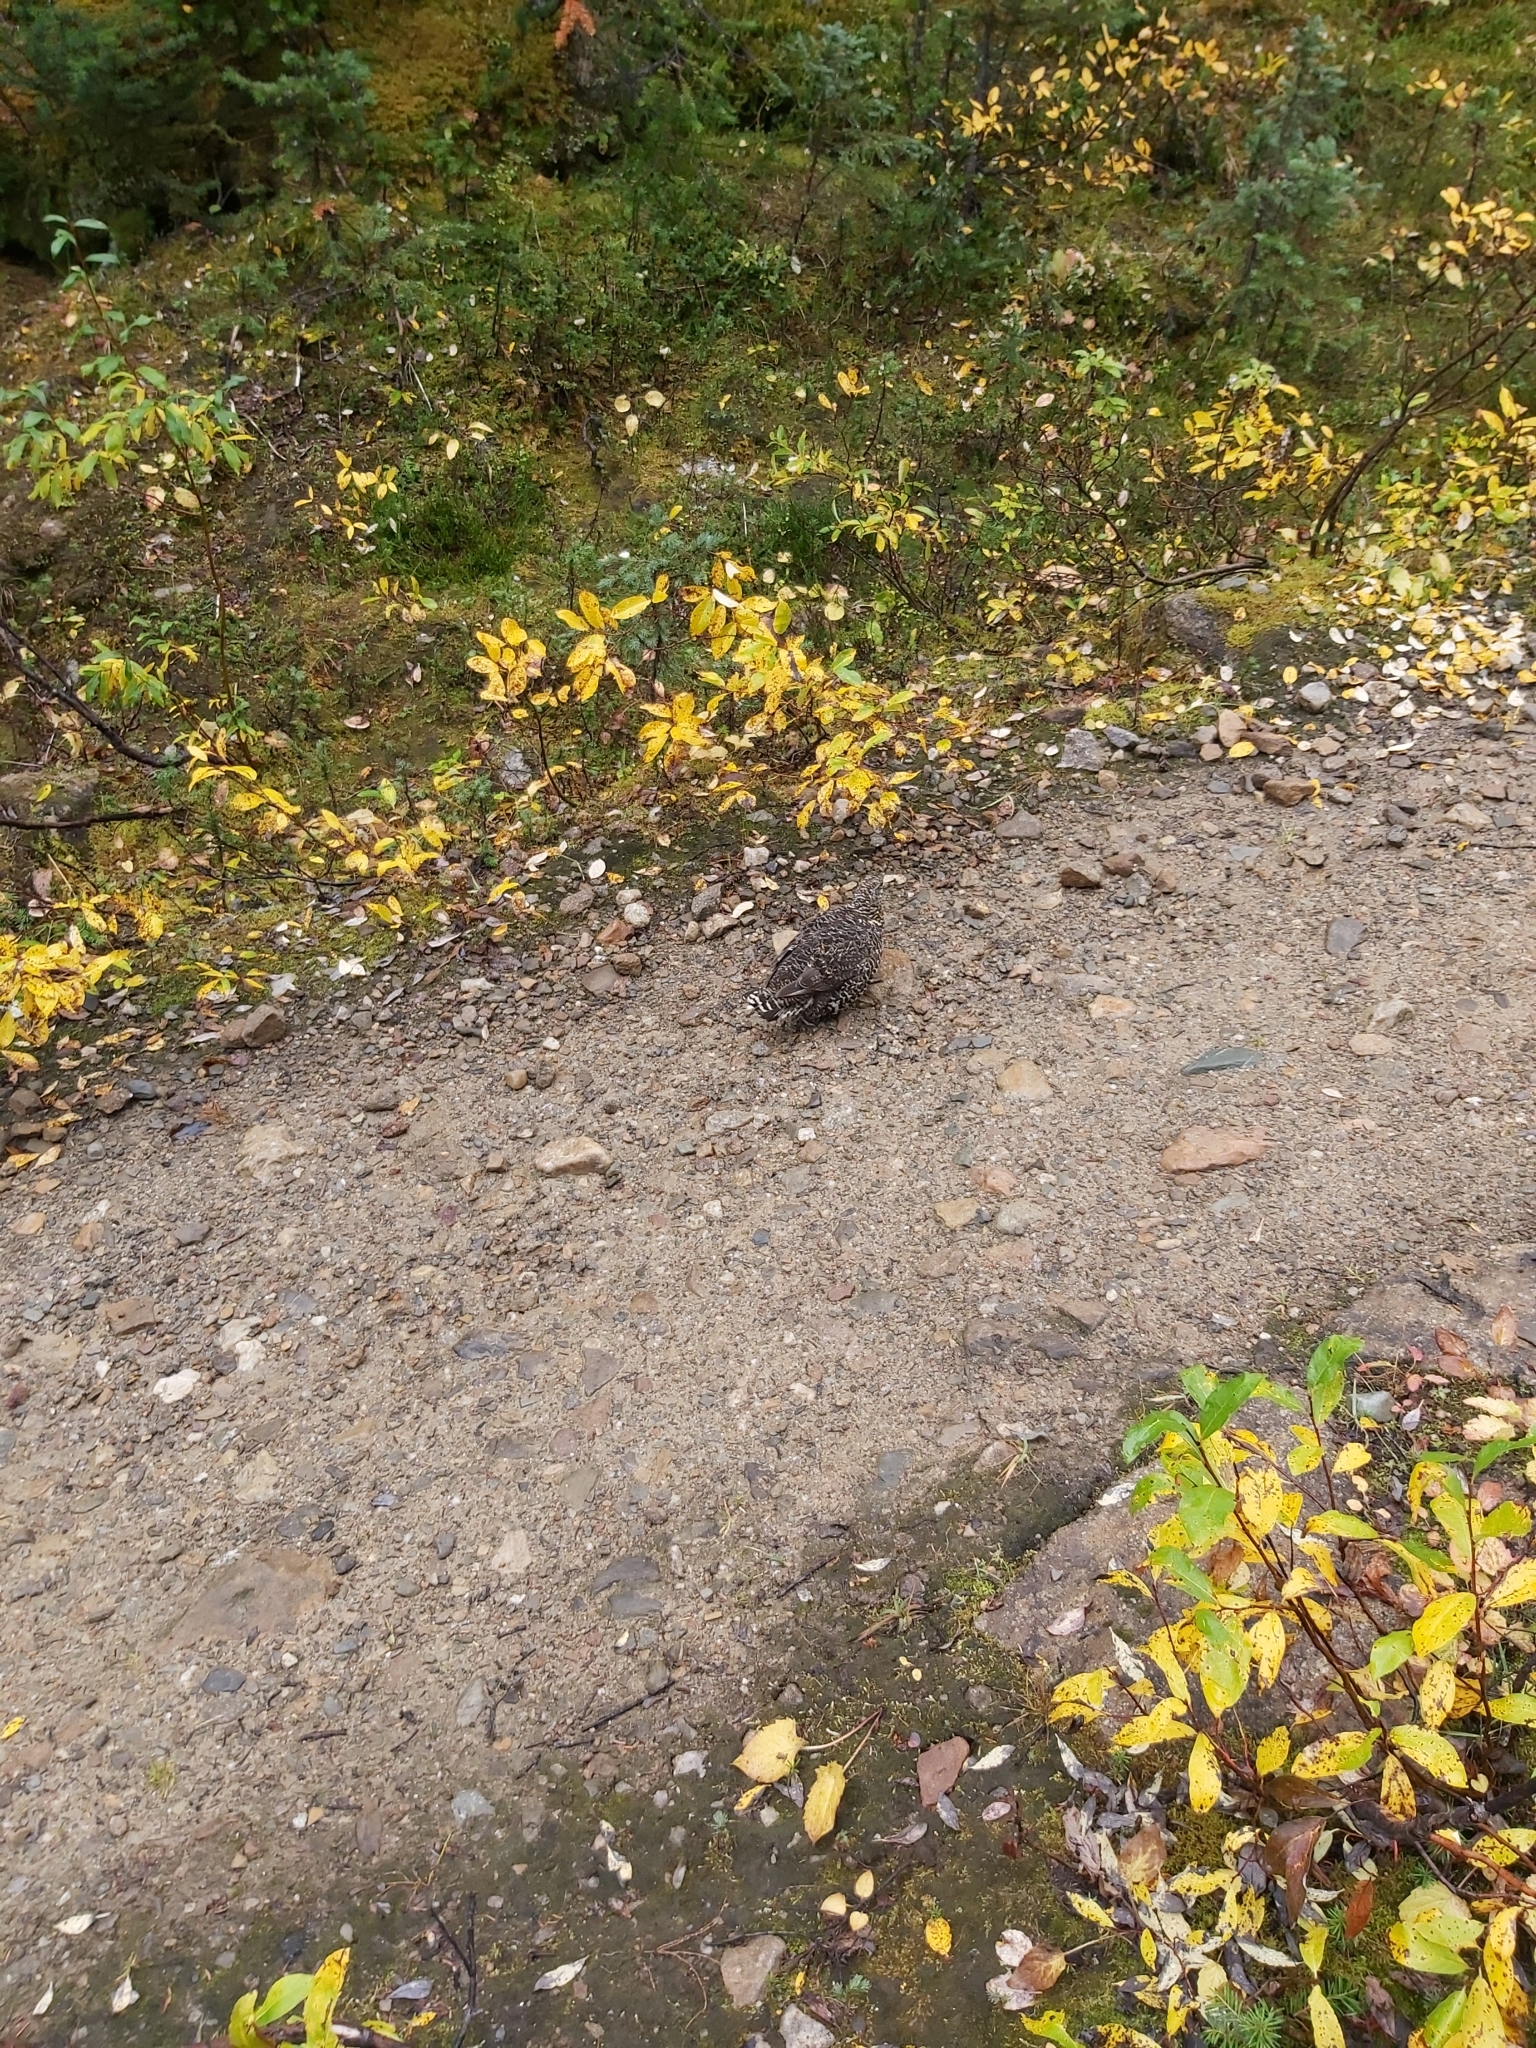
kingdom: Animalia
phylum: Chordata
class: Aves
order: Galliformes
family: Phasianidae
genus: Canachites
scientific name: Canachites canadensis
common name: Spruce grouse
